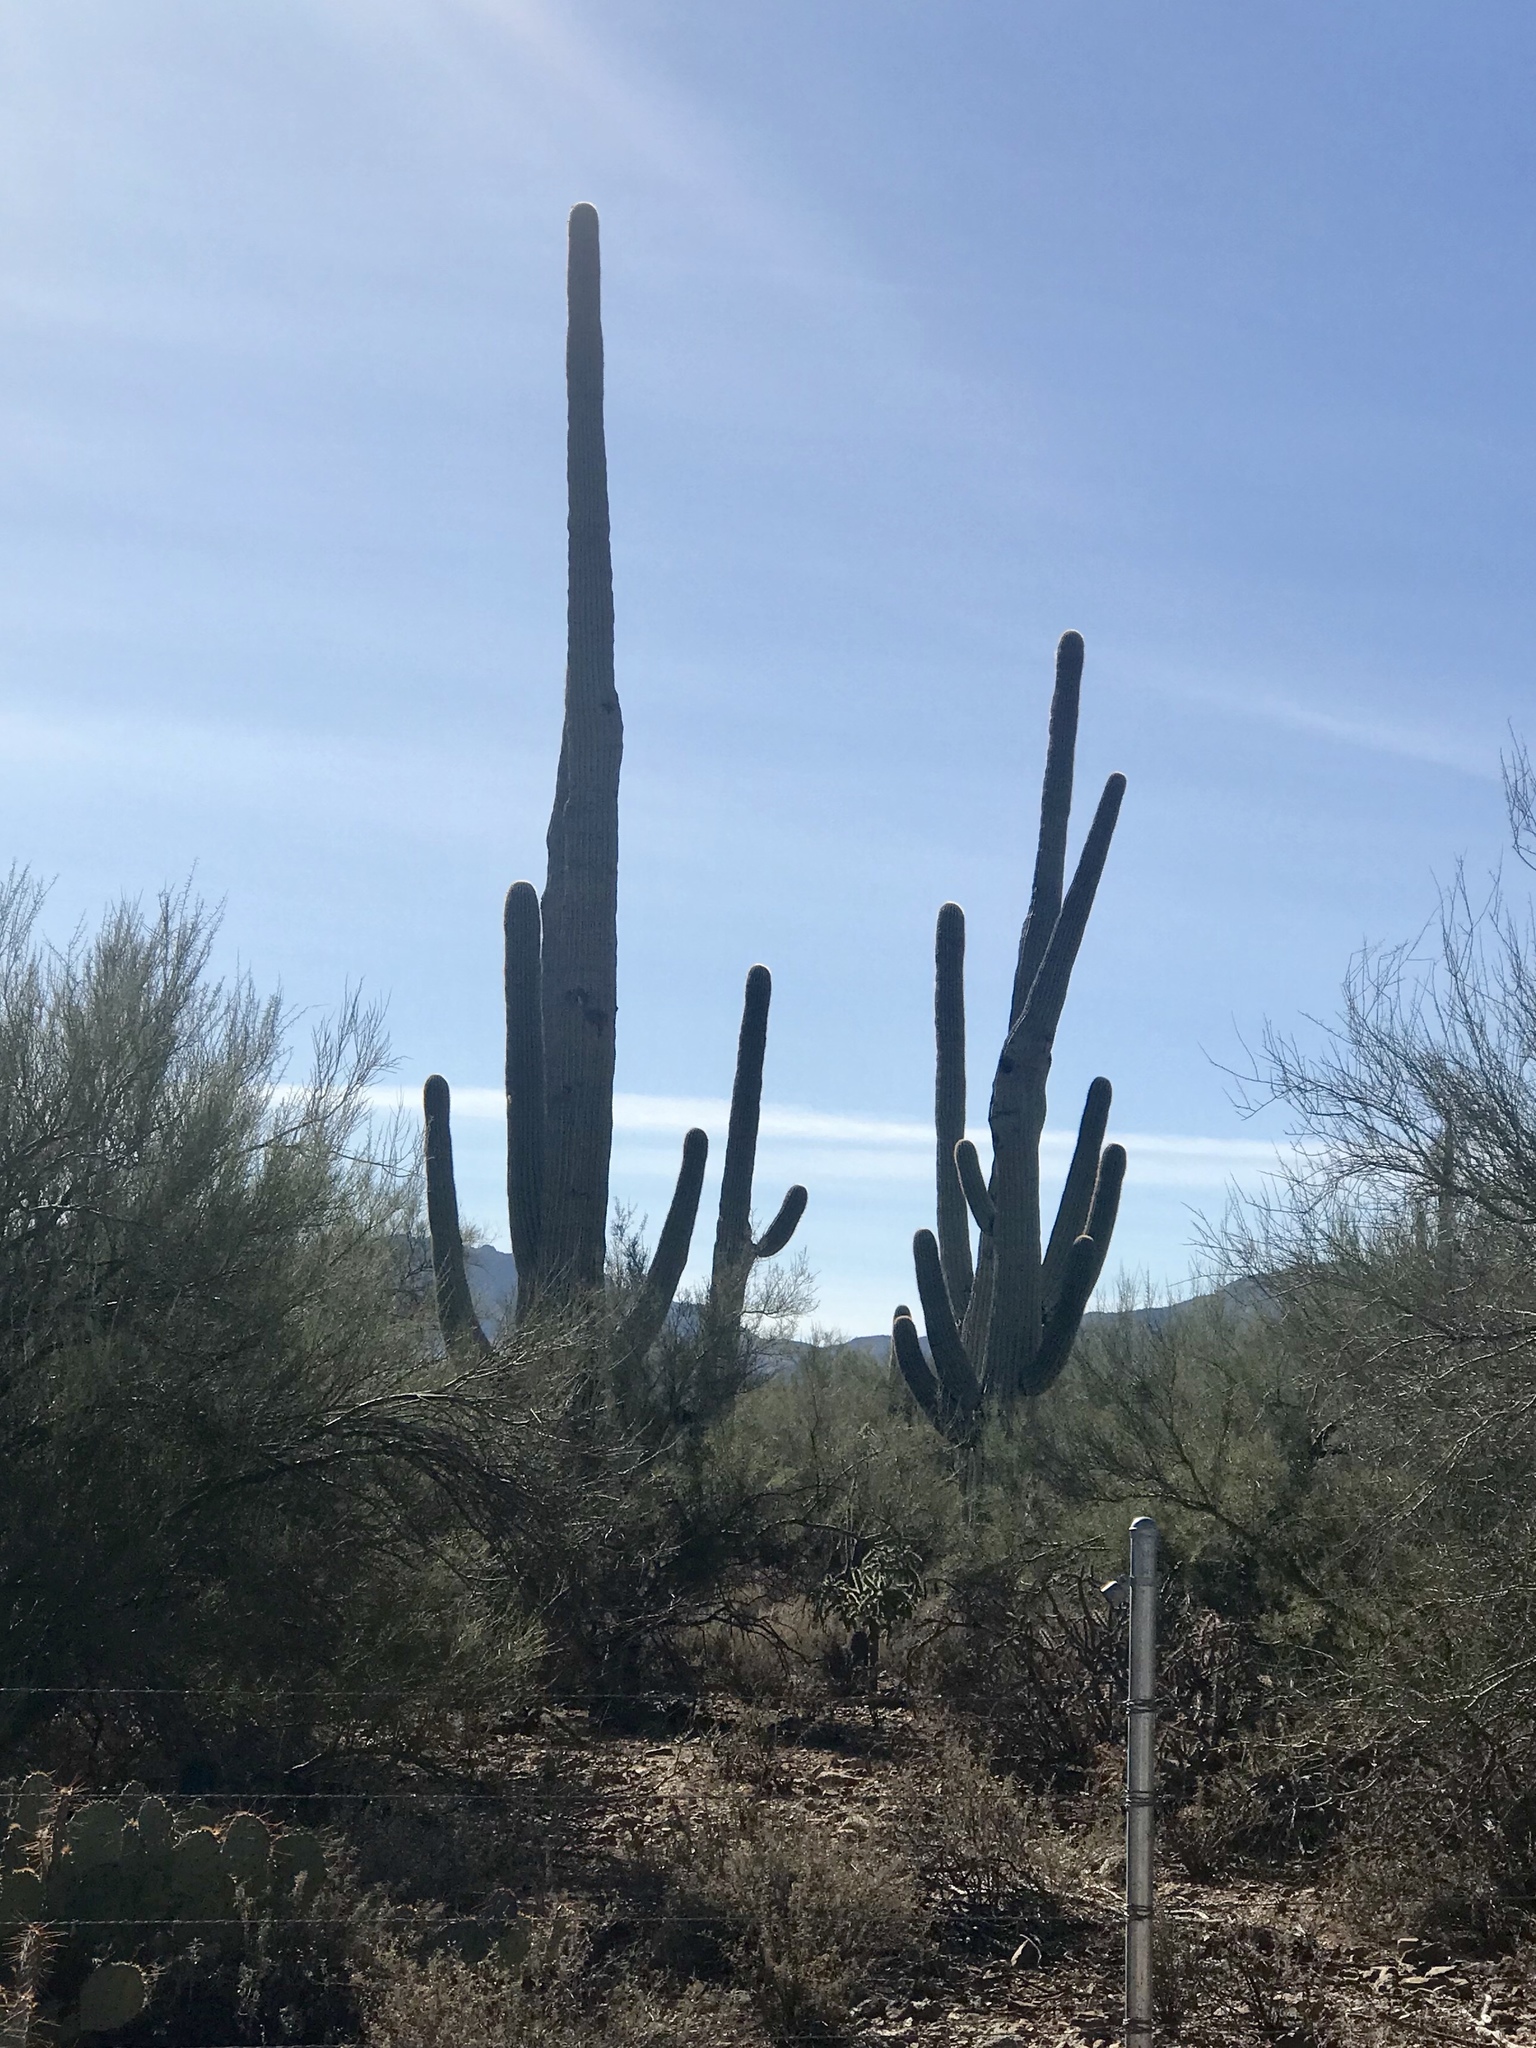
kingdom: Plantae
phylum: Tracheophyta
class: Magnoliopsida
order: Caryophyllales
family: Cactaceae
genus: Carnegiea
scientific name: Carnegiea gigantea
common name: Saguaro
